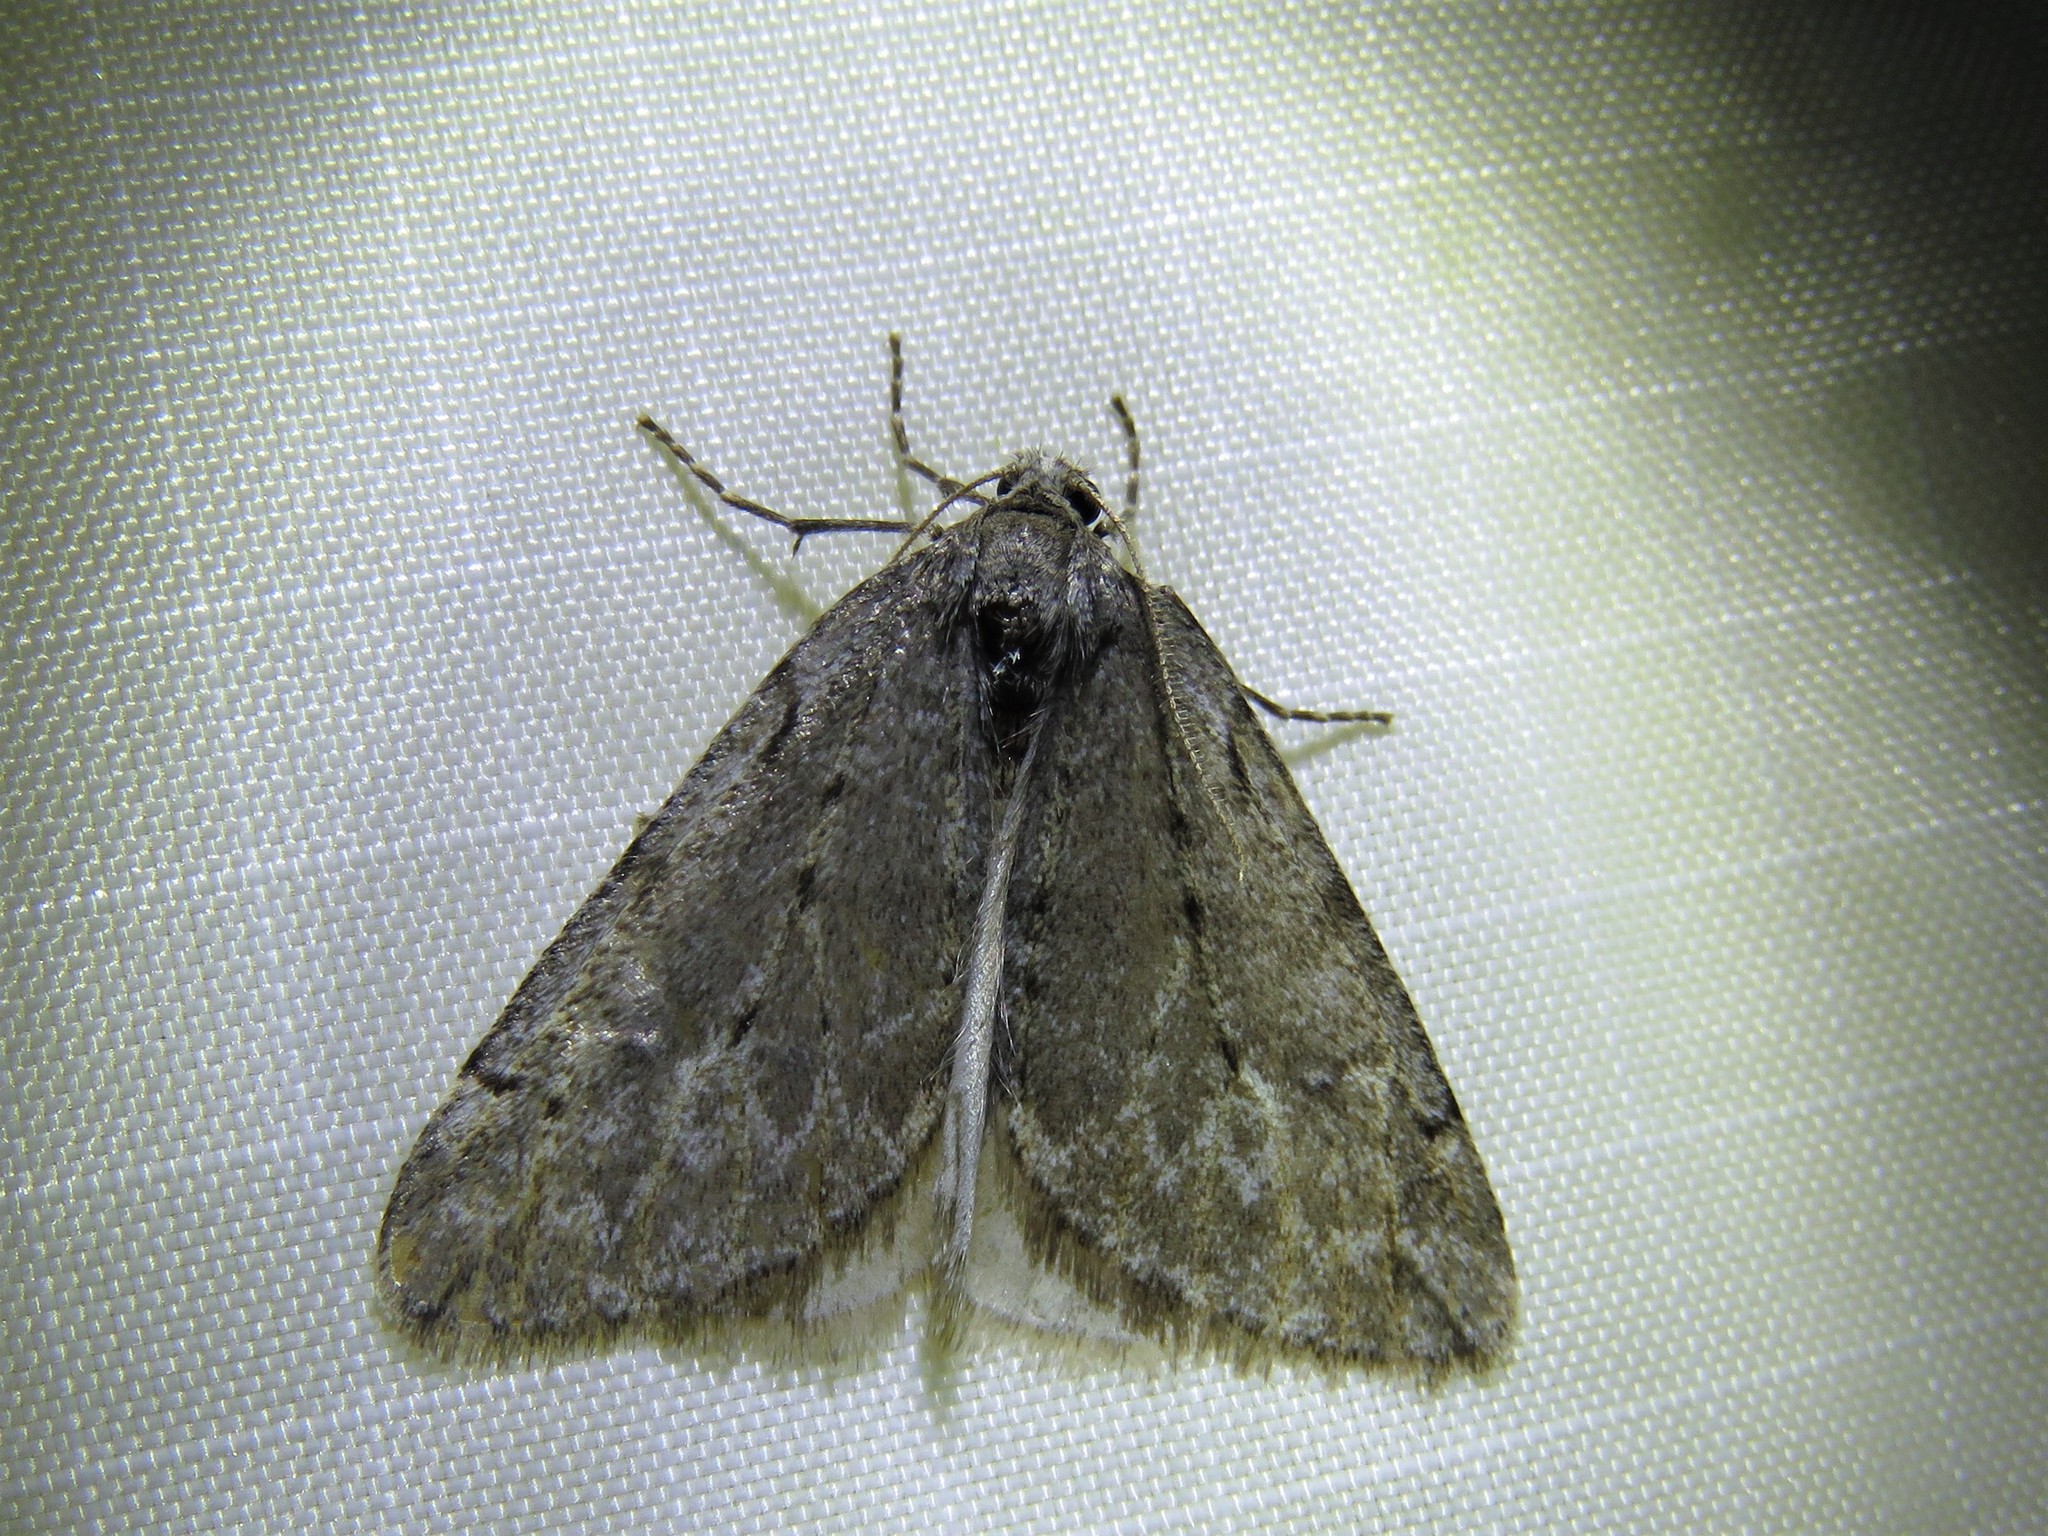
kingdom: Animalia
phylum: Arthropoda
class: Insecta
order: Lepidoptera
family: Geometridae
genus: Paleacrita
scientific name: Paleacrita vernata
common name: Spring cankerworm
